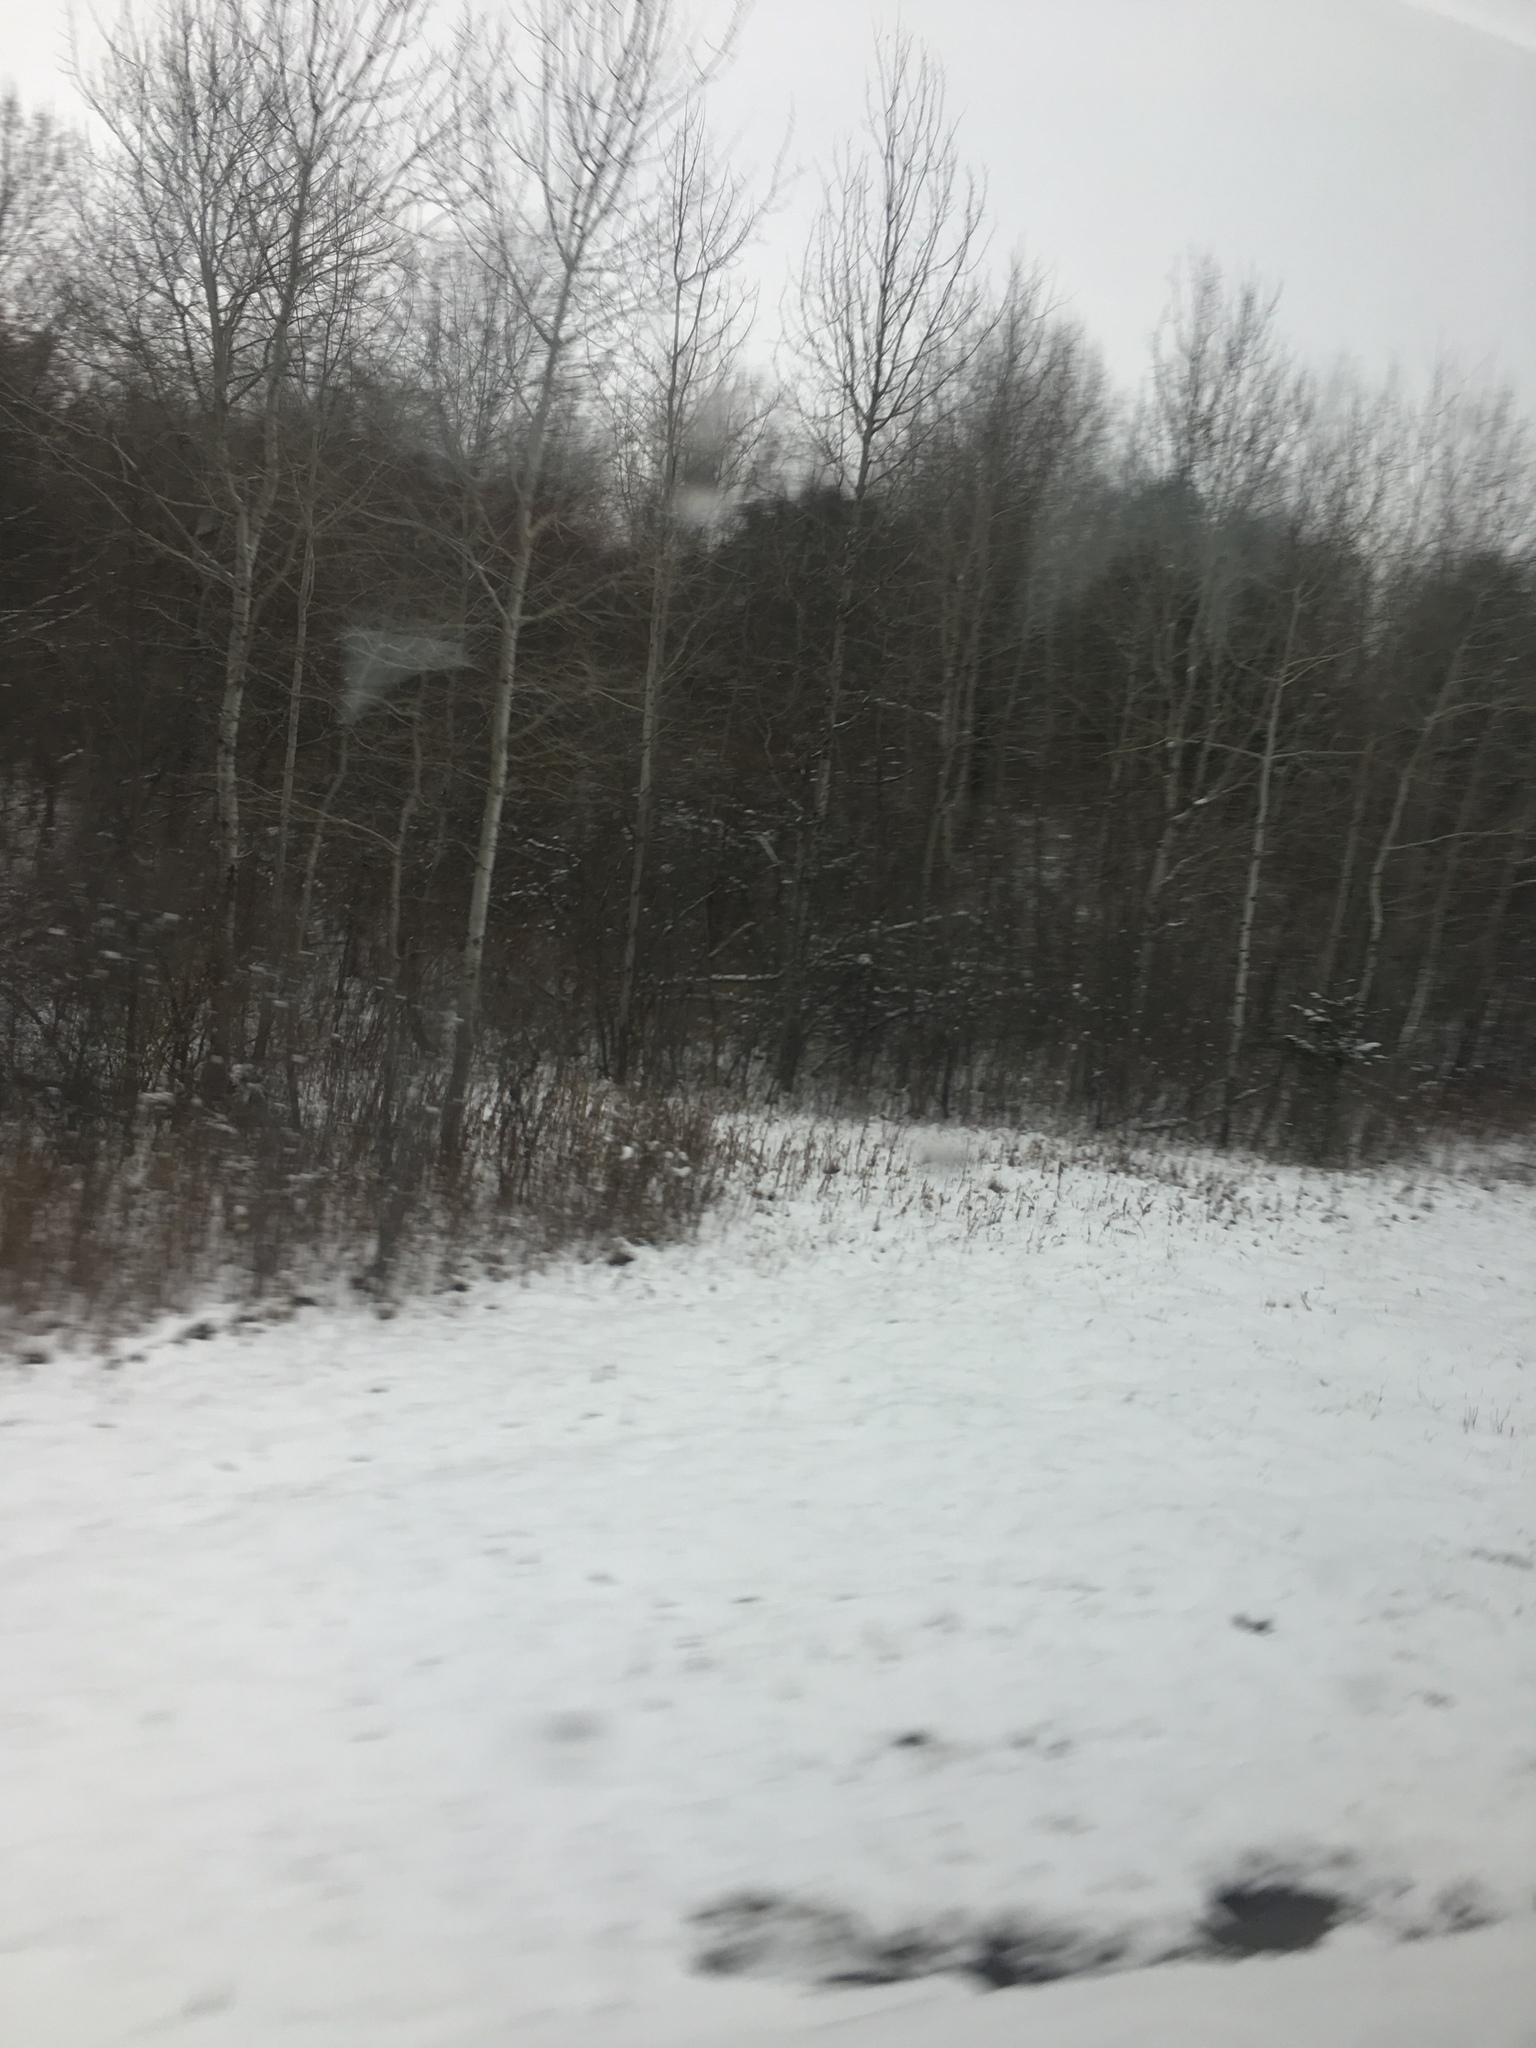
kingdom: Plantae
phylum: Tracheophyta
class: Magnoliopsida
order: Malpighiales
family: Salicaceae
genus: Populus
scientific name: Populus tremuloides
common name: Quaking aspen
